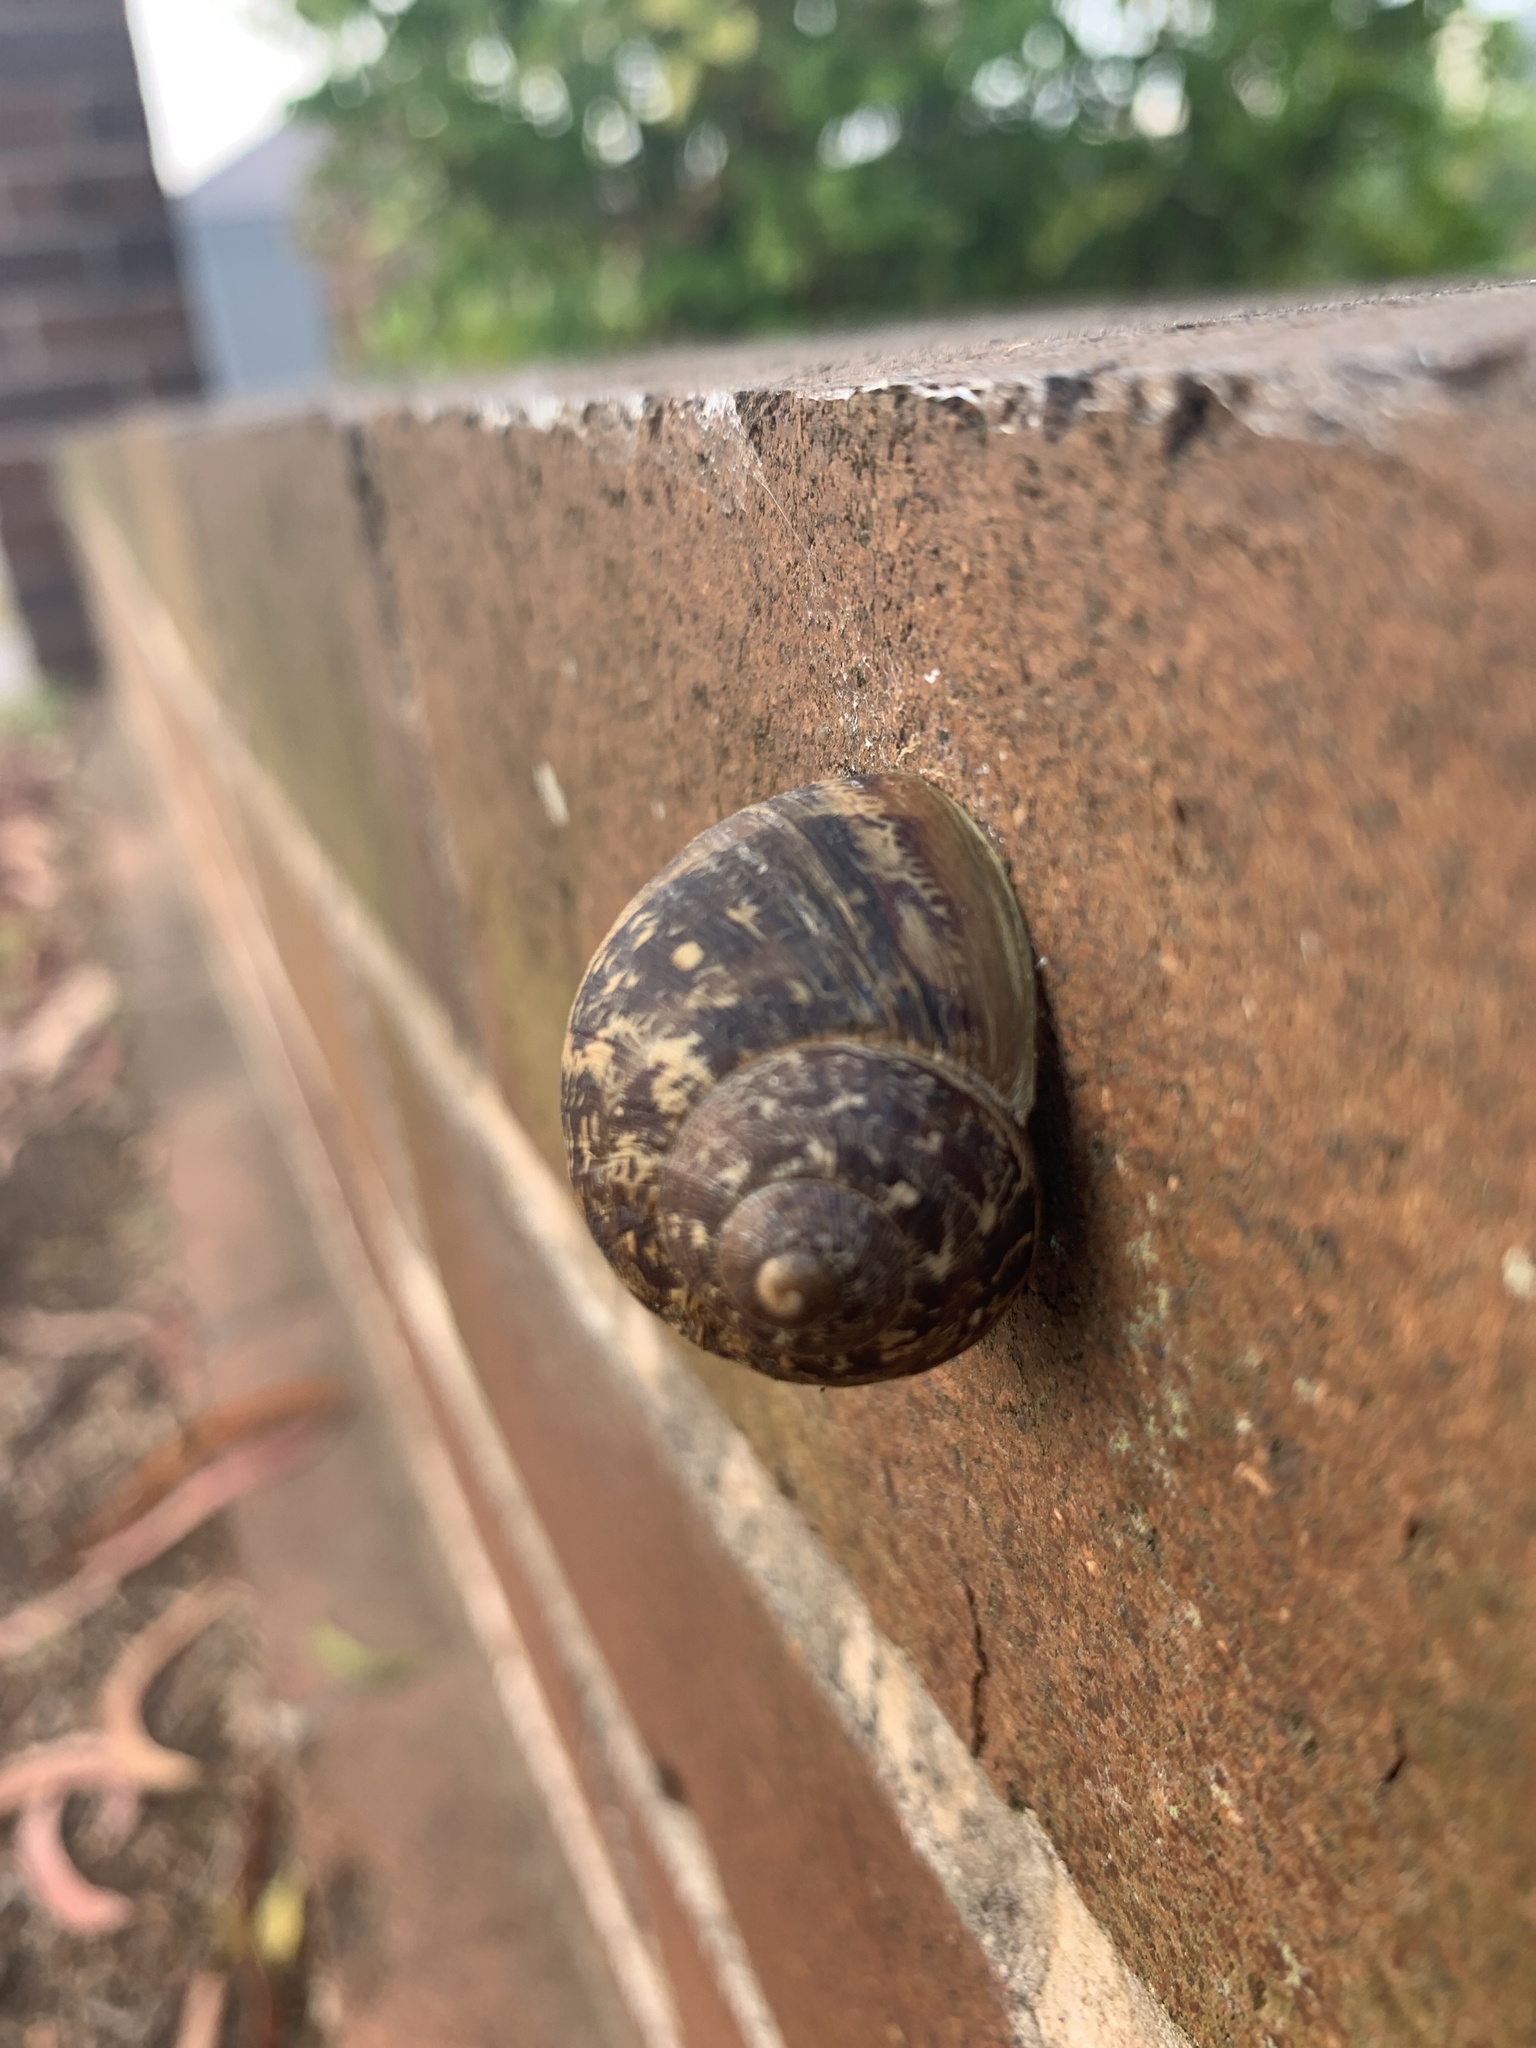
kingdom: Animalia
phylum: Mollusca
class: Gastropoda
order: Stylommatophora
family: Helicidae
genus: Cornu
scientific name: Cornu aspersum
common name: Brown garden snail
